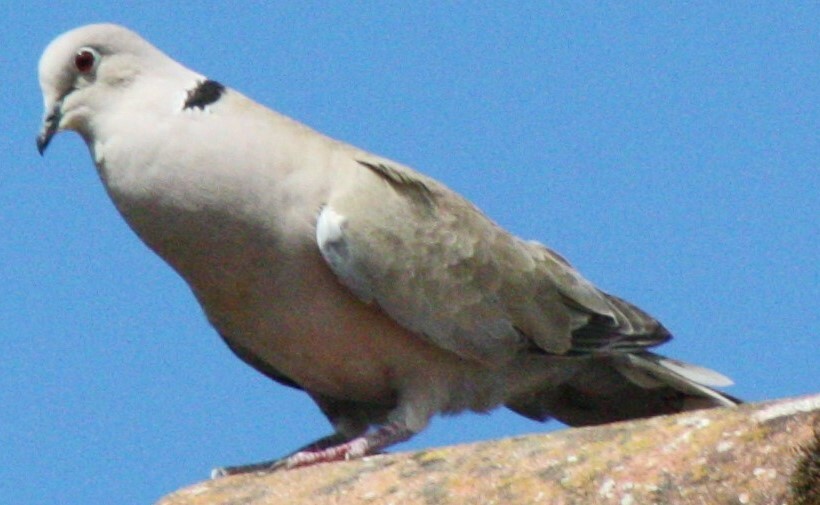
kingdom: Animalia
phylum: Chordata
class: Aves
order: Columbiformes
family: Columbidae
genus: Streptopelia
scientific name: Streptopelia decaocto
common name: Eurasian collared dove
